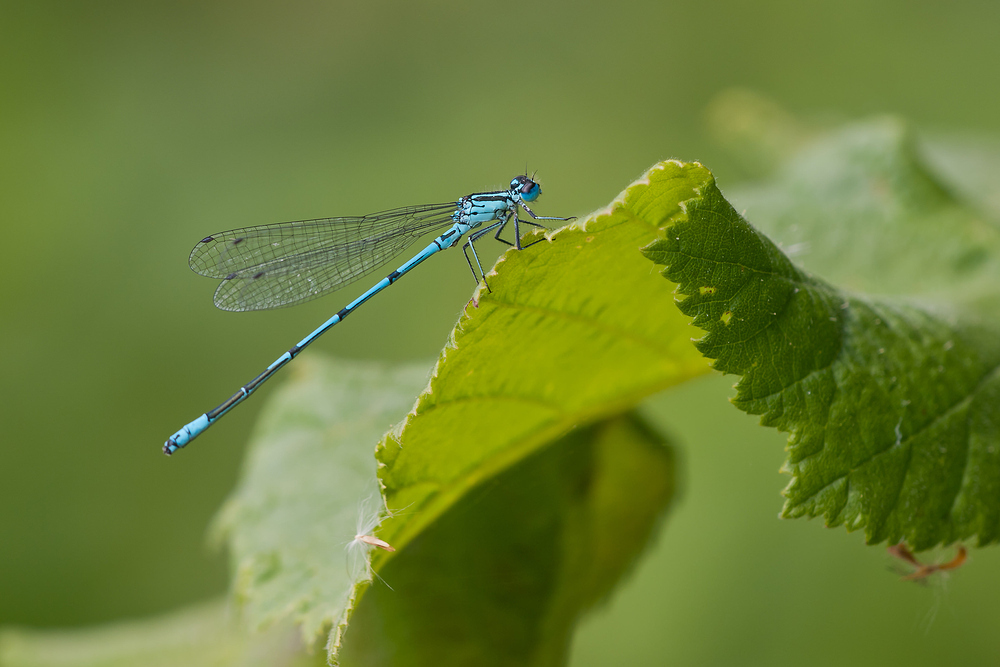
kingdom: Animalia
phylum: Arthropoda
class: Insecta
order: Odonata
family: Coenagrionidae
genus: Coenagrion
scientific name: Coenagrion puella
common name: Azure damselfly
